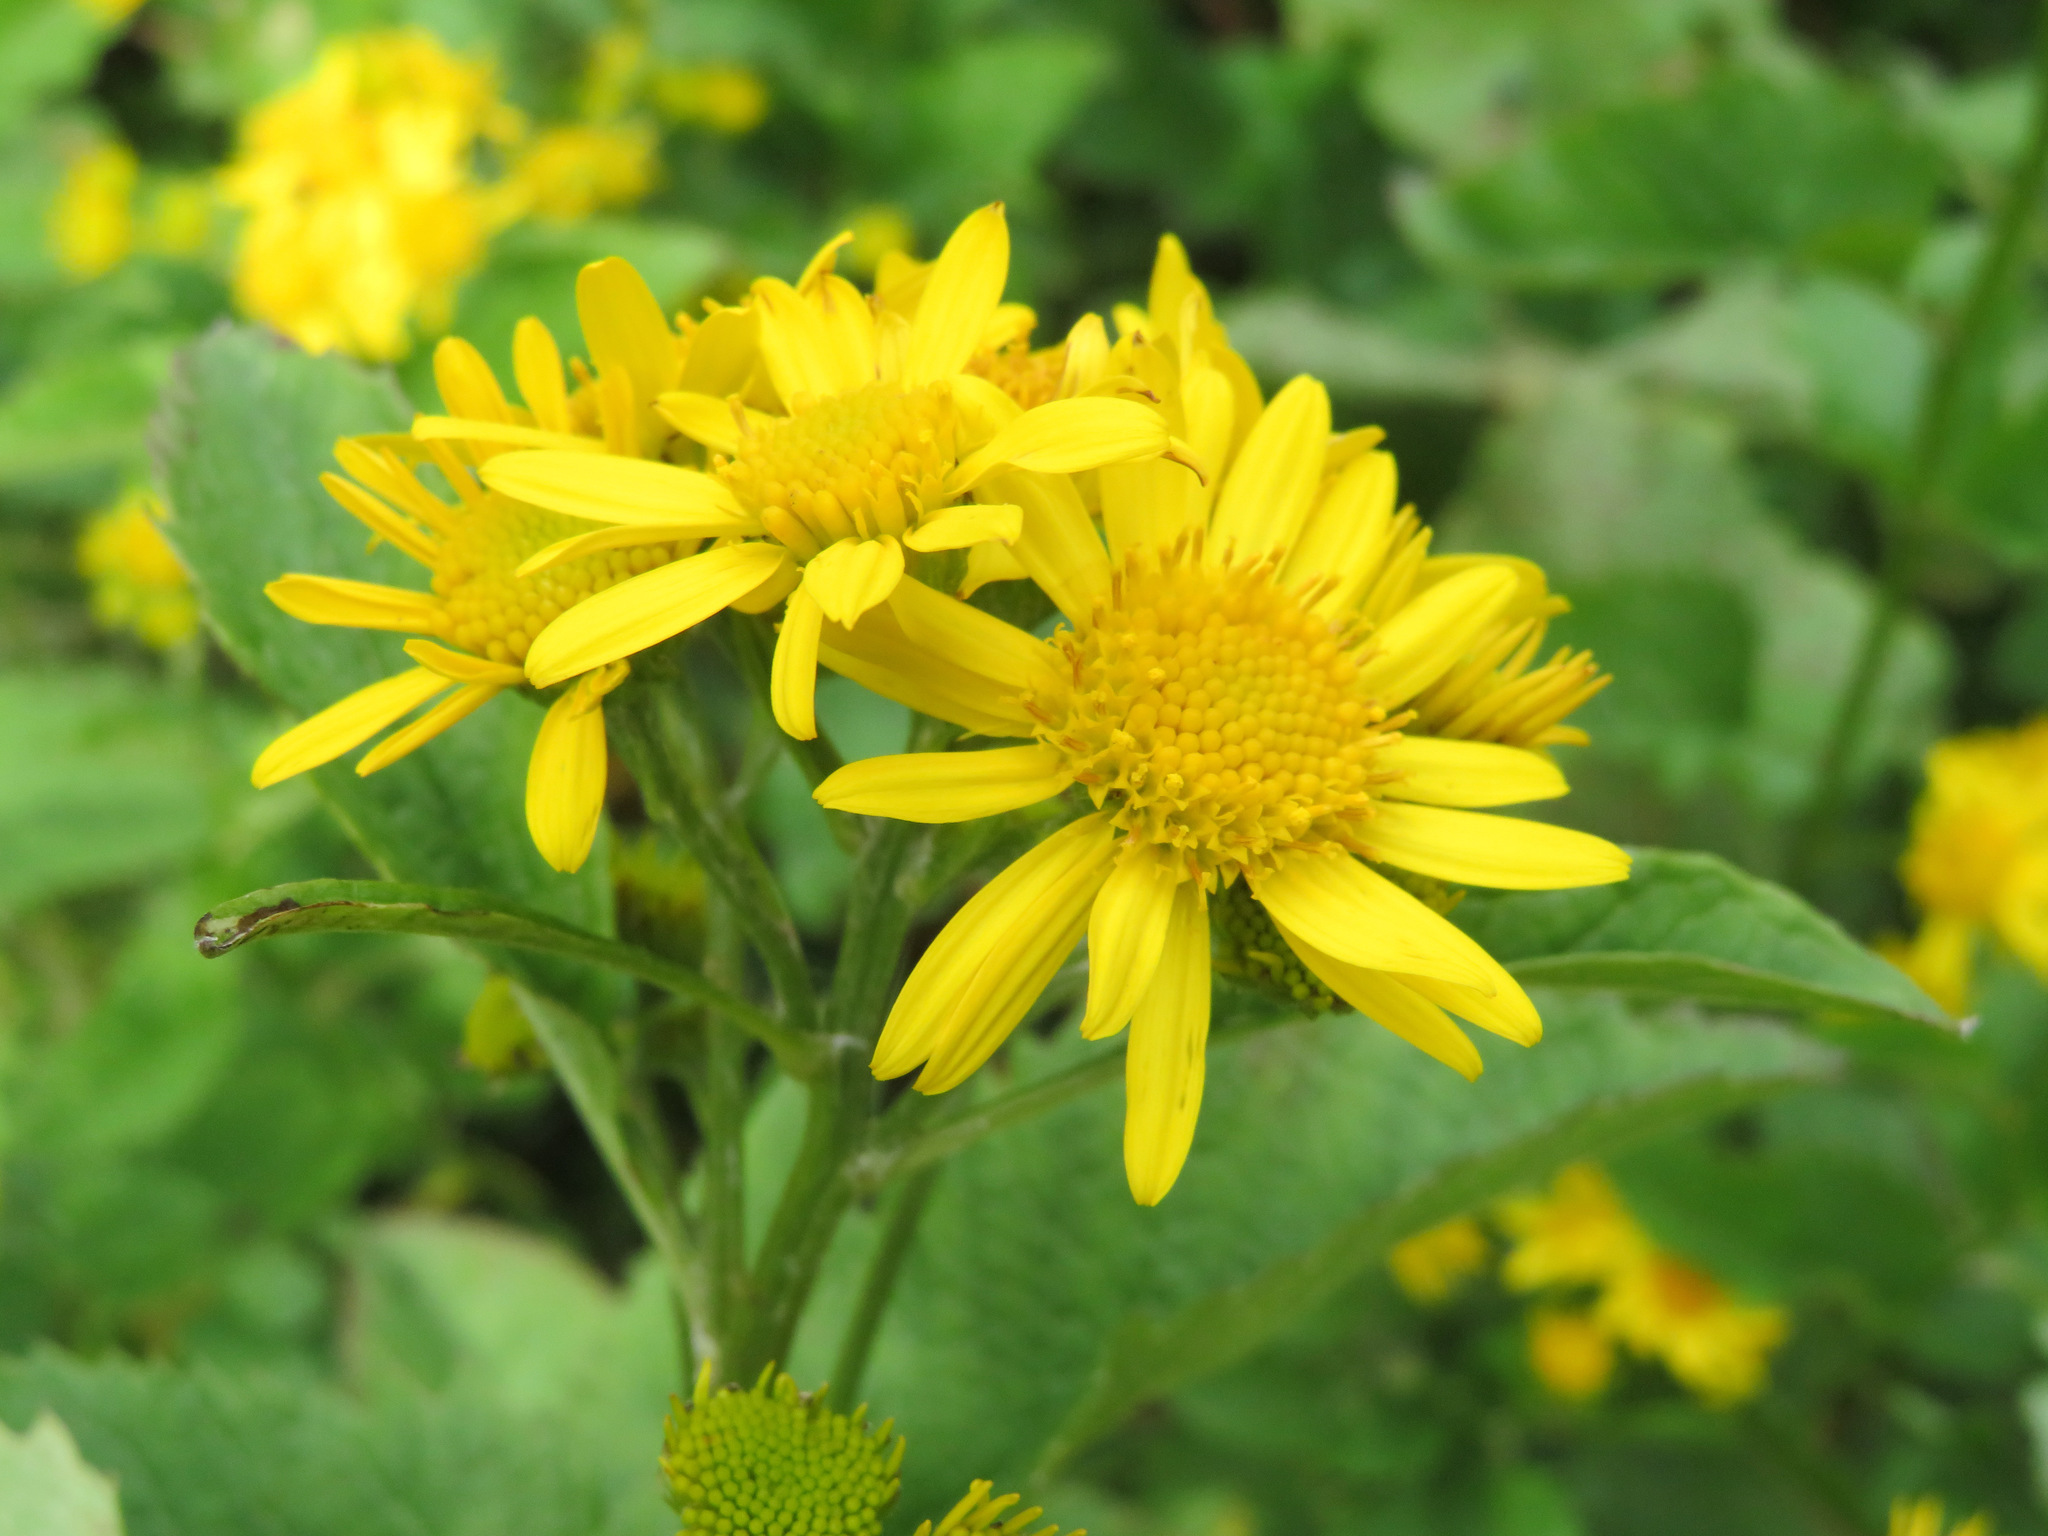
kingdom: Plantae
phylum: Tracheophyta
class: Magnoliopsida
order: Asterales
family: Asteraceae
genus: Jacobaea
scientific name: Jacobaea alpina
